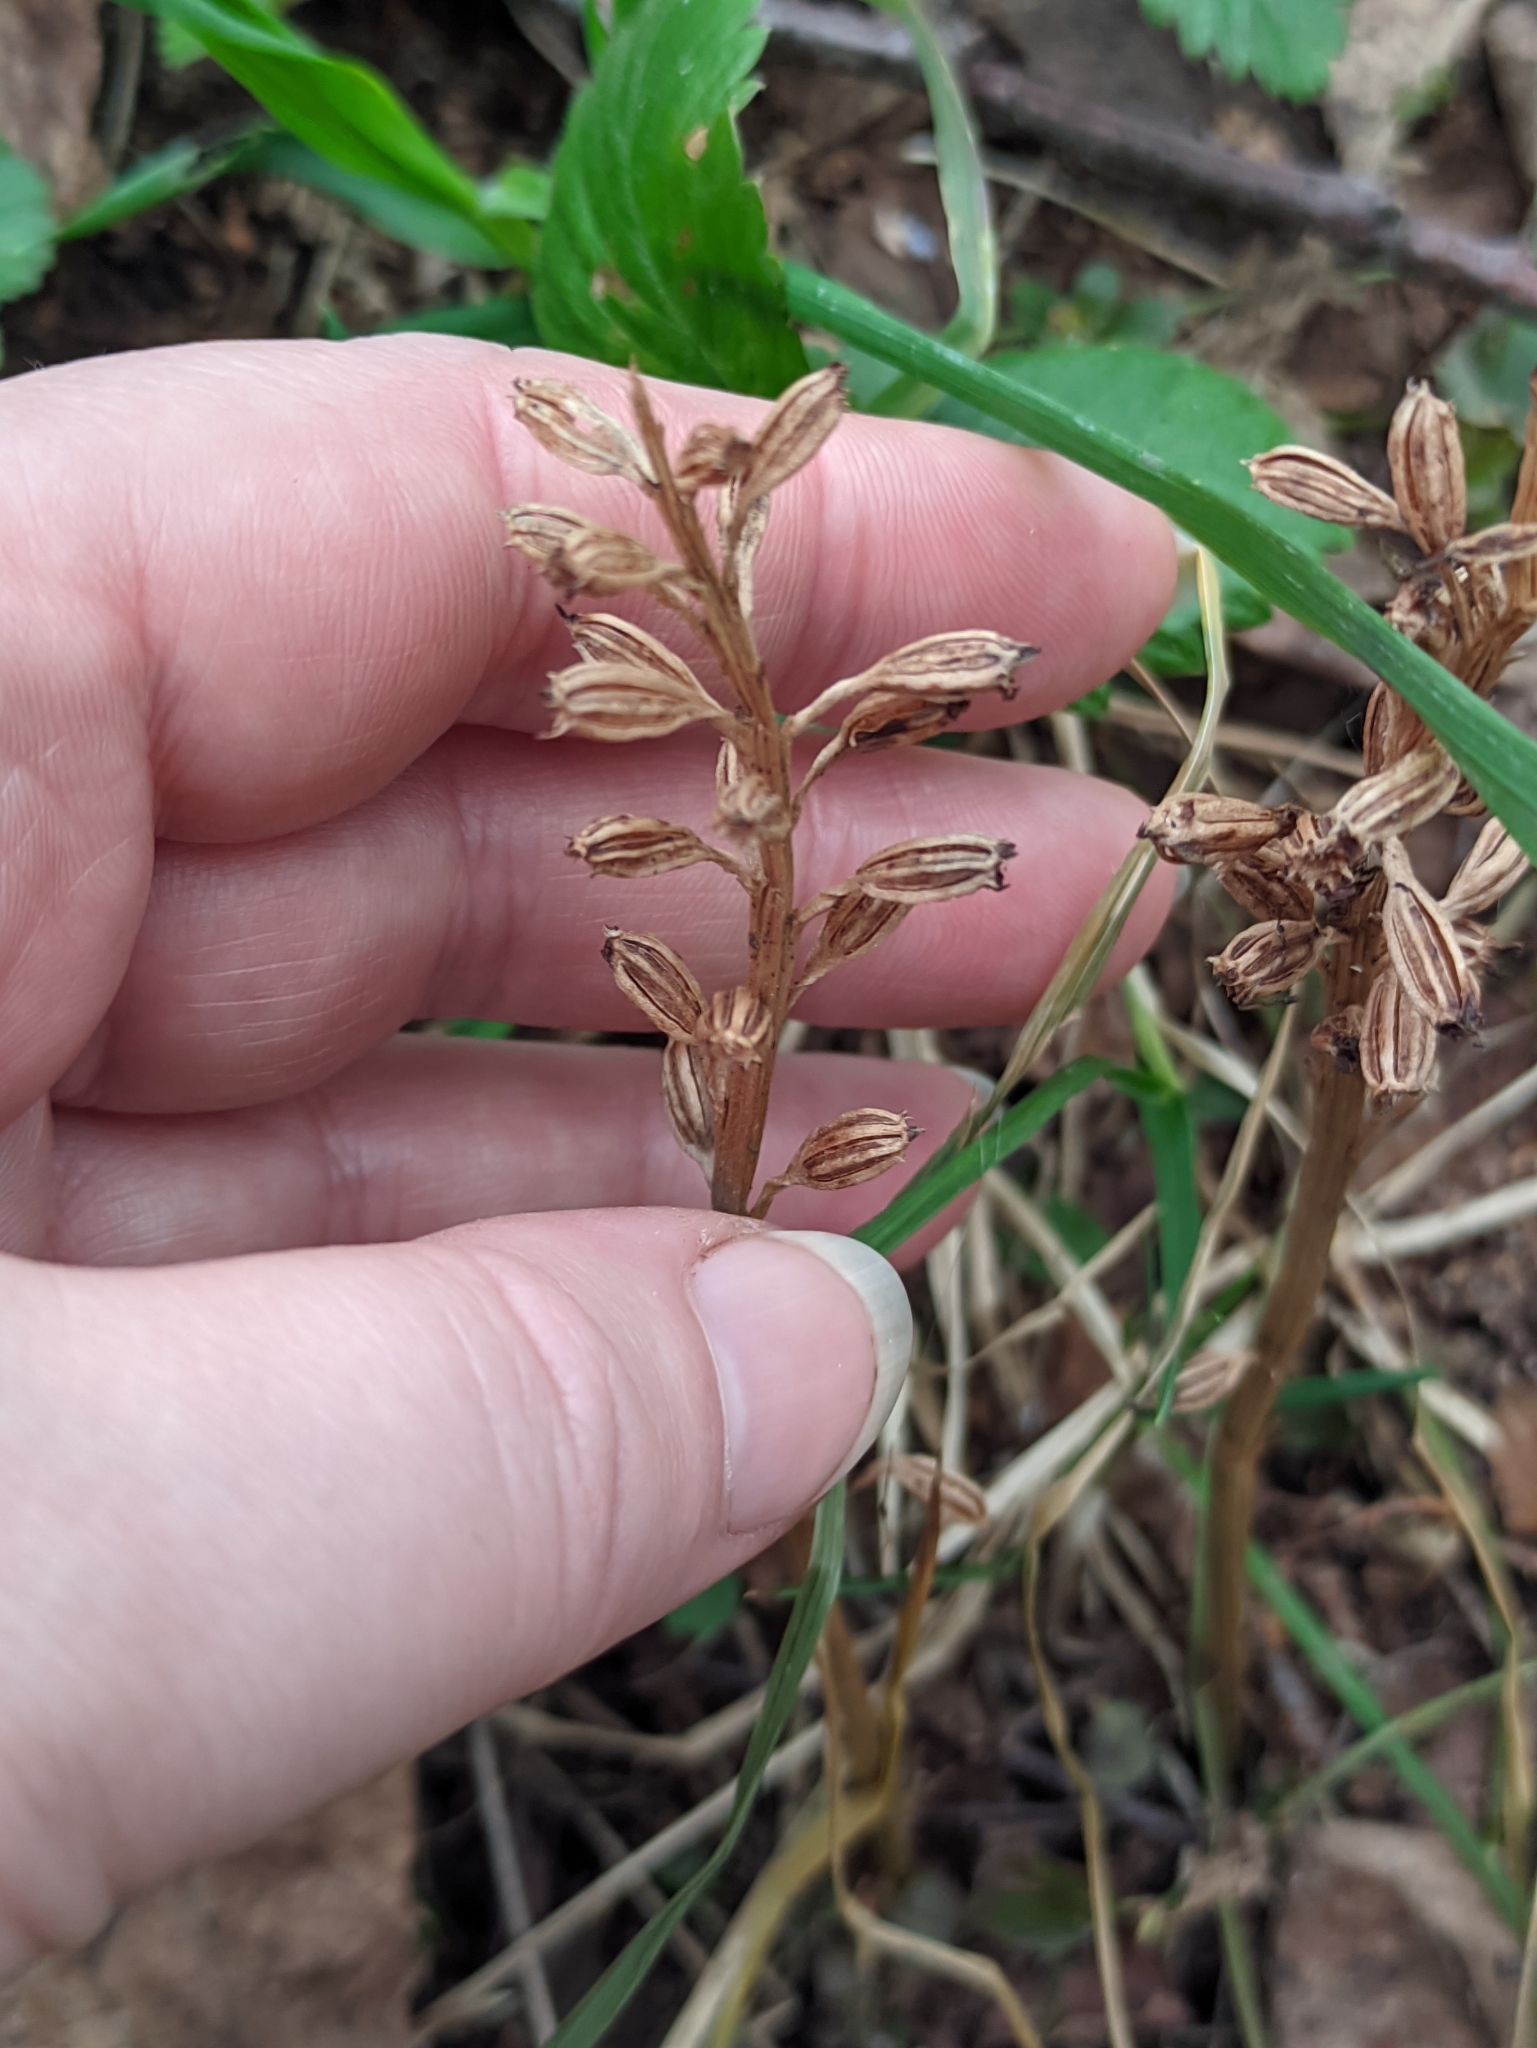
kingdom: Plantae
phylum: Tracheophyta
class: Liliopsida
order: Asparagales
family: Orchidaceae
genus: Neottia
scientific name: Neottia nidus-avis
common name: Bird's-nest orchid
